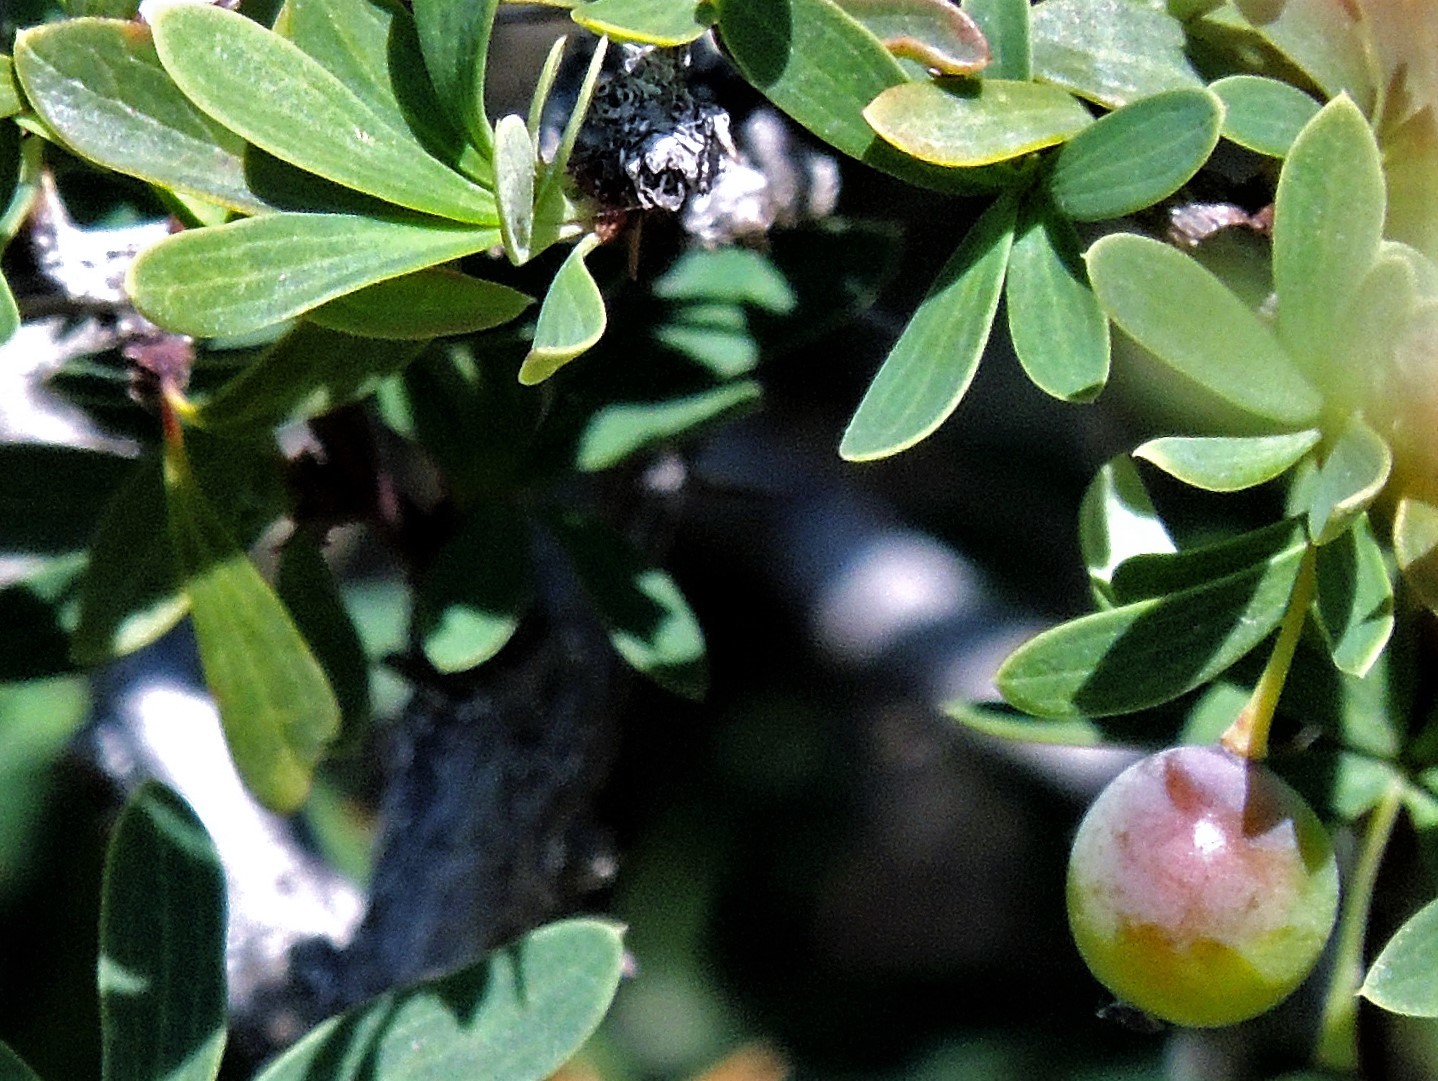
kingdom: Plantae
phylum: Tracheophyta
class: Magnoliopsida
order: Ranunculales
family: Berberidaceae
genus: Berberis
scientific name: Berberis microphylla
